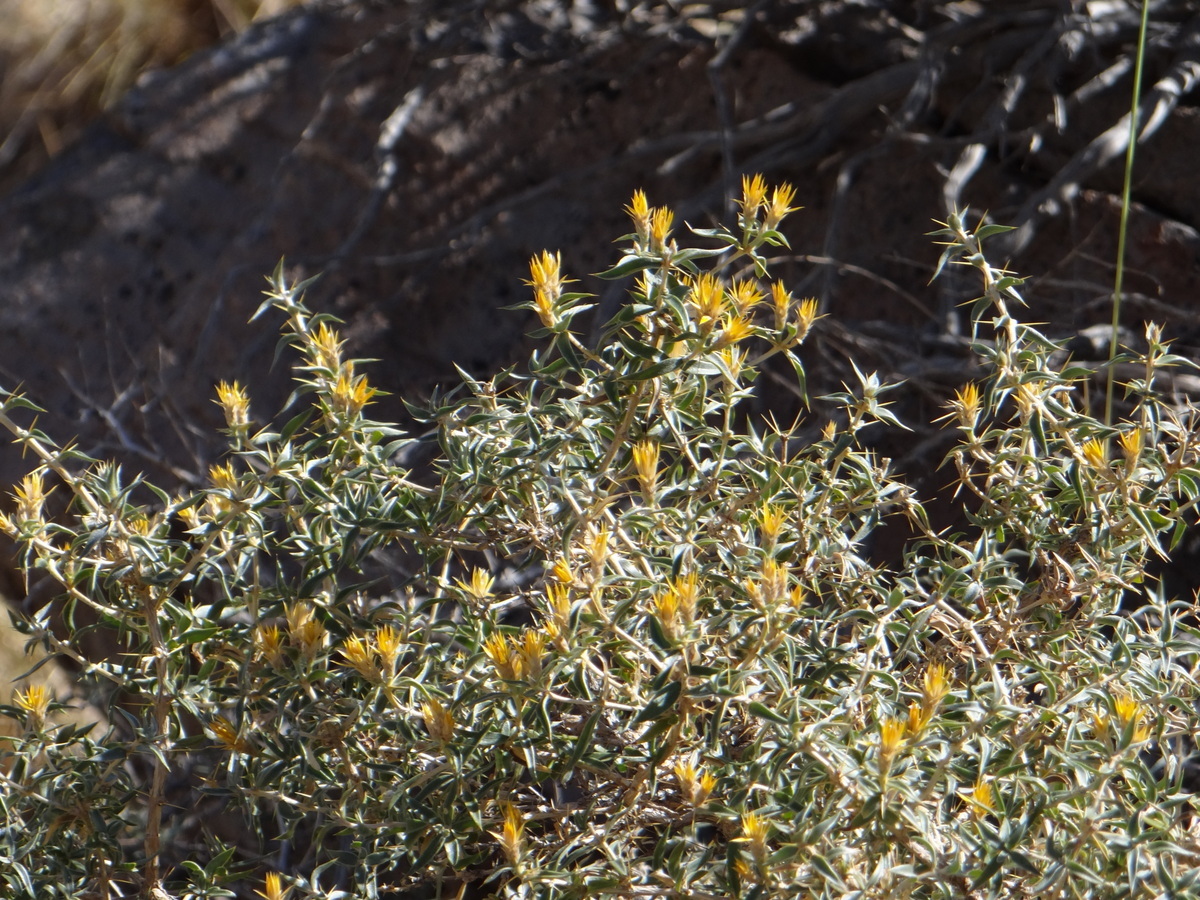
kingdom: Plantae
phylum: Tracheophyta
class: Magnoliopsida
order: Asterales
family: Asteraceae
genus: Chuquiraga
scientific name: Chuquiraga oppositifolia
